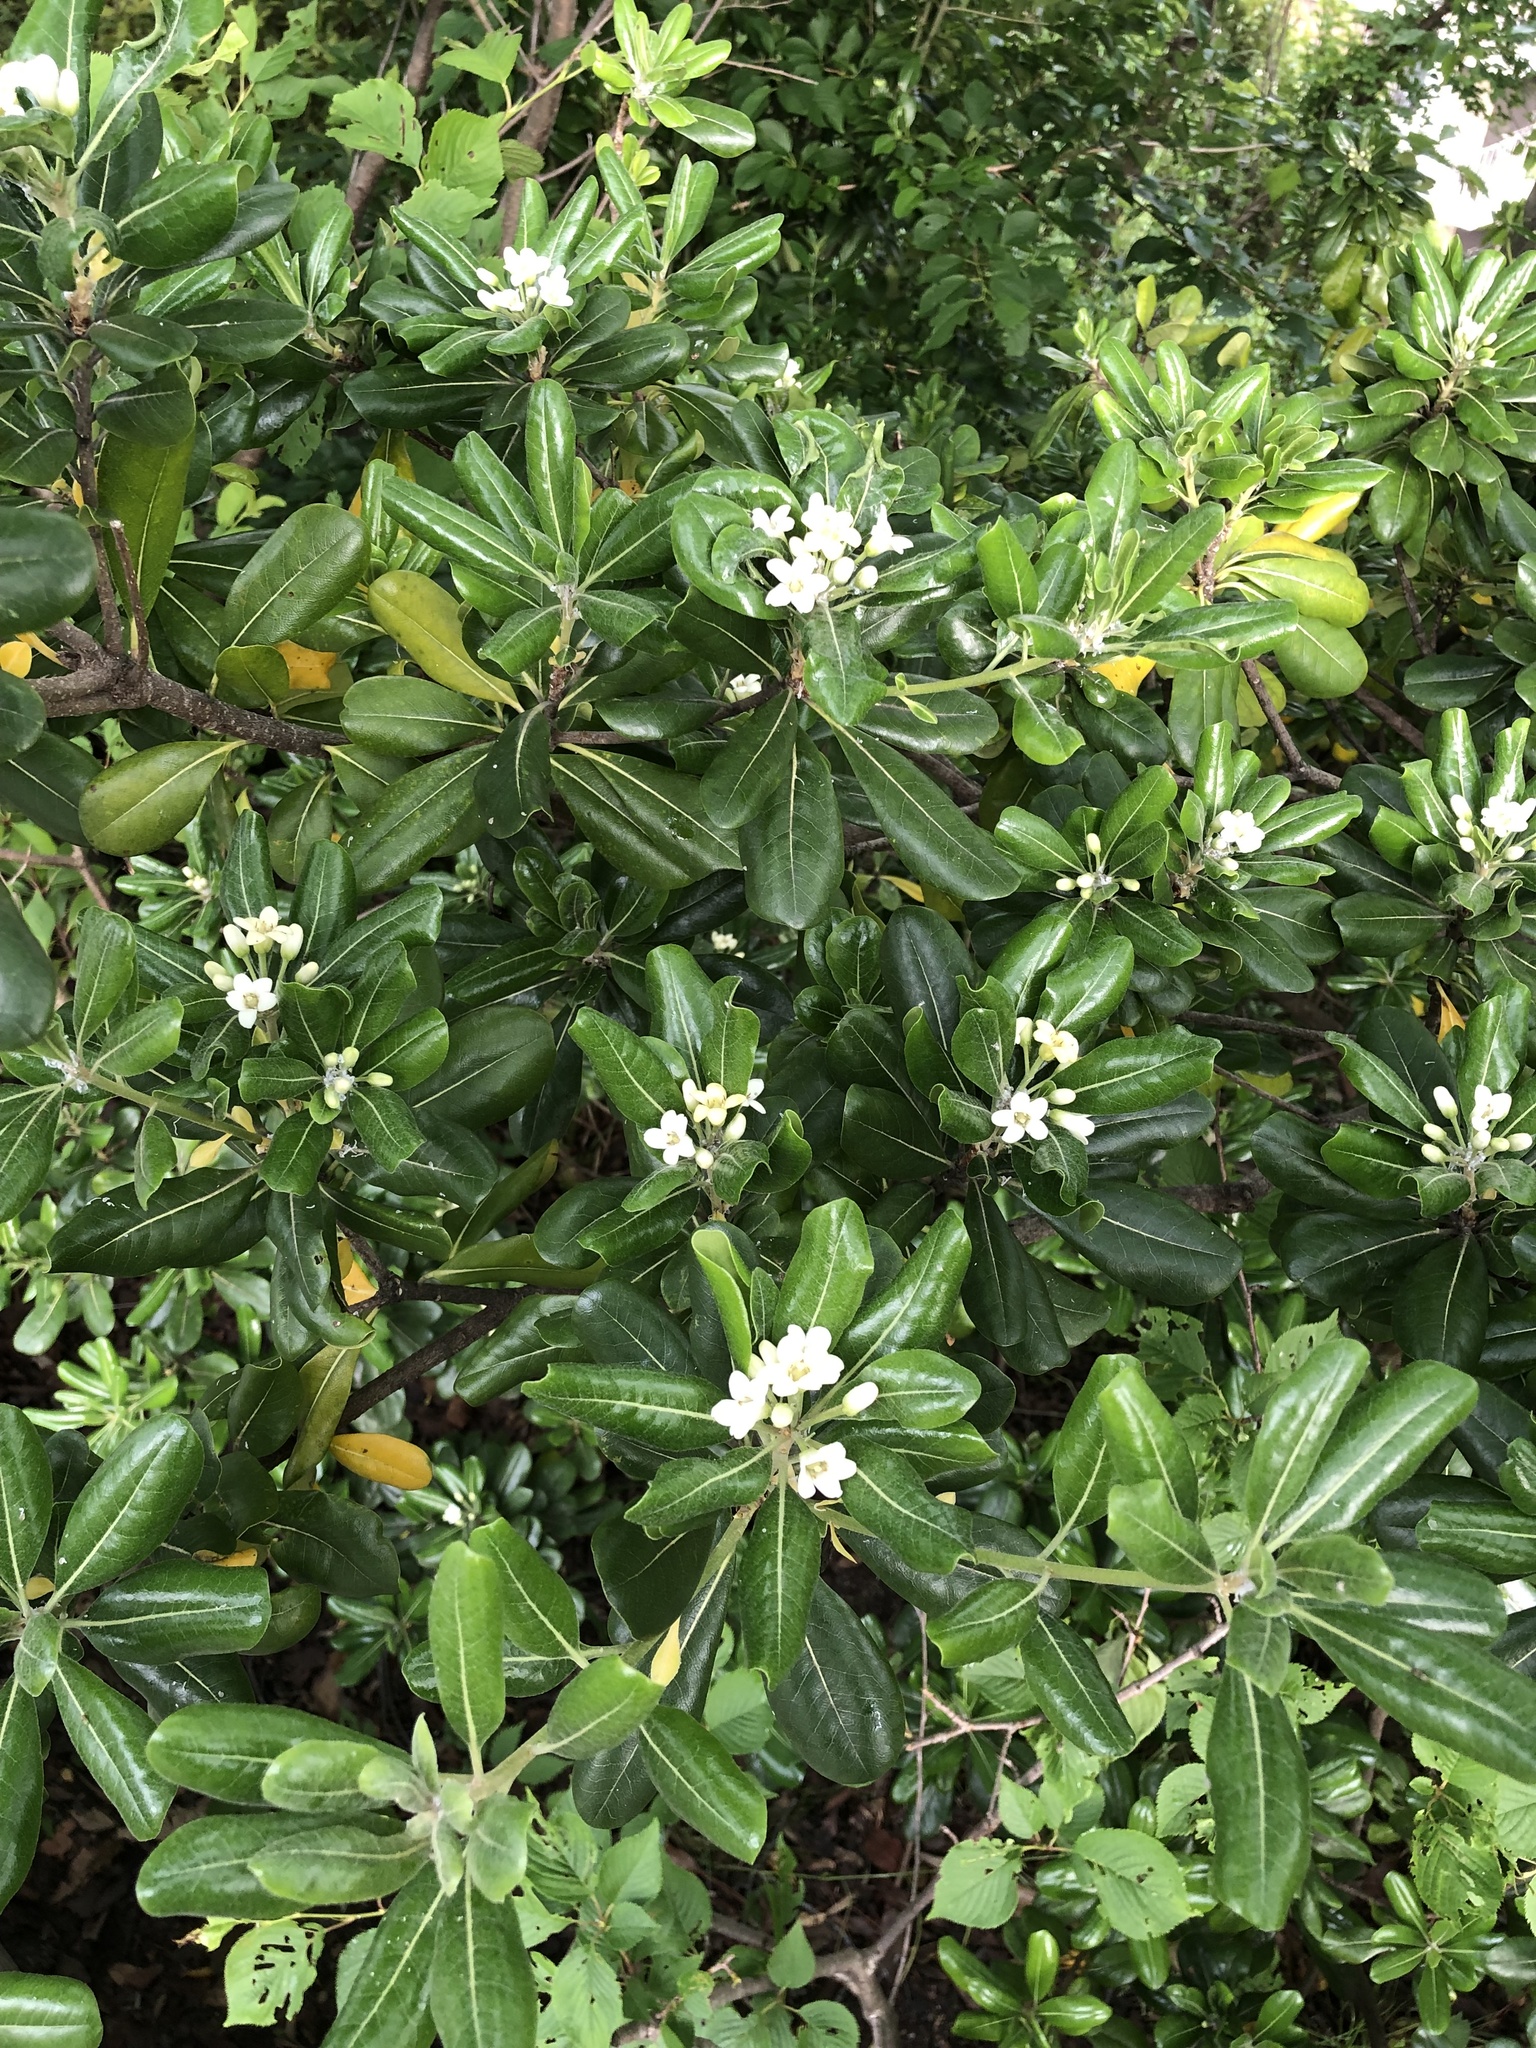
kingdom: Plantae
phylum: Tracheophyta
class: Magnoliopsida
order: Apiales
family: Pittosporaceae
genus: Pittosporum
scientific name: Pittosporum tobira
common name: Japanese cheesewood
